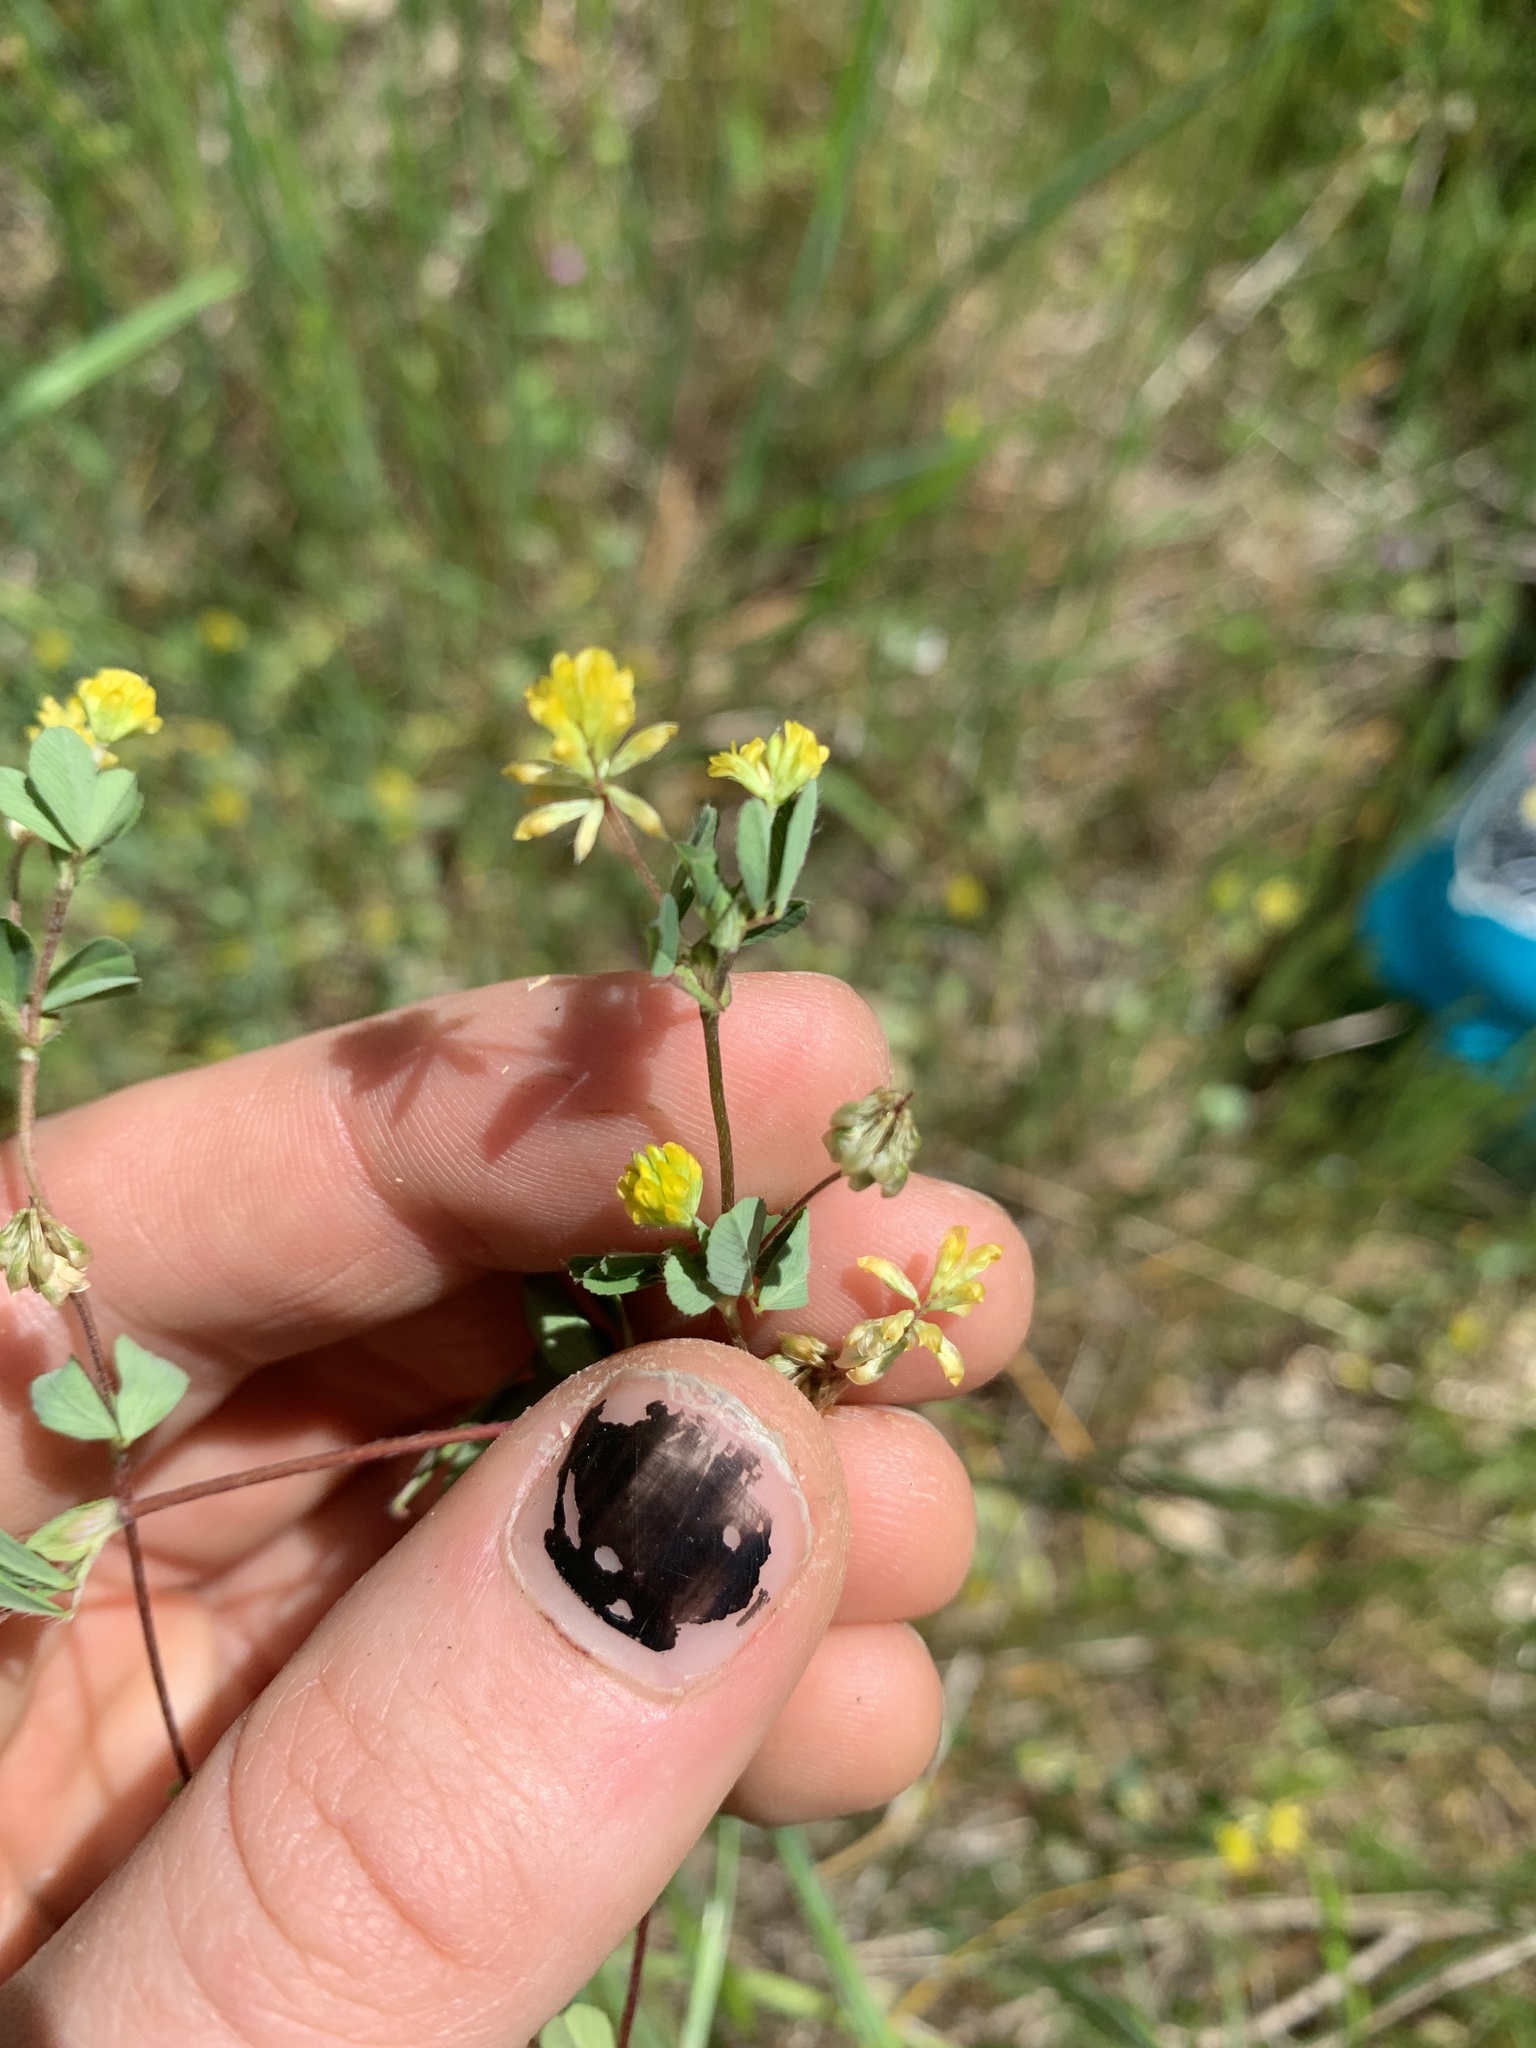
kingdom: Plantae
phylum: Tracheophyta
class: Magnoliopsida
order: Fabales
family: Fabaceae
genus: Trifolium
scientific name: Trifolium dubium
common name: Suckling clover
